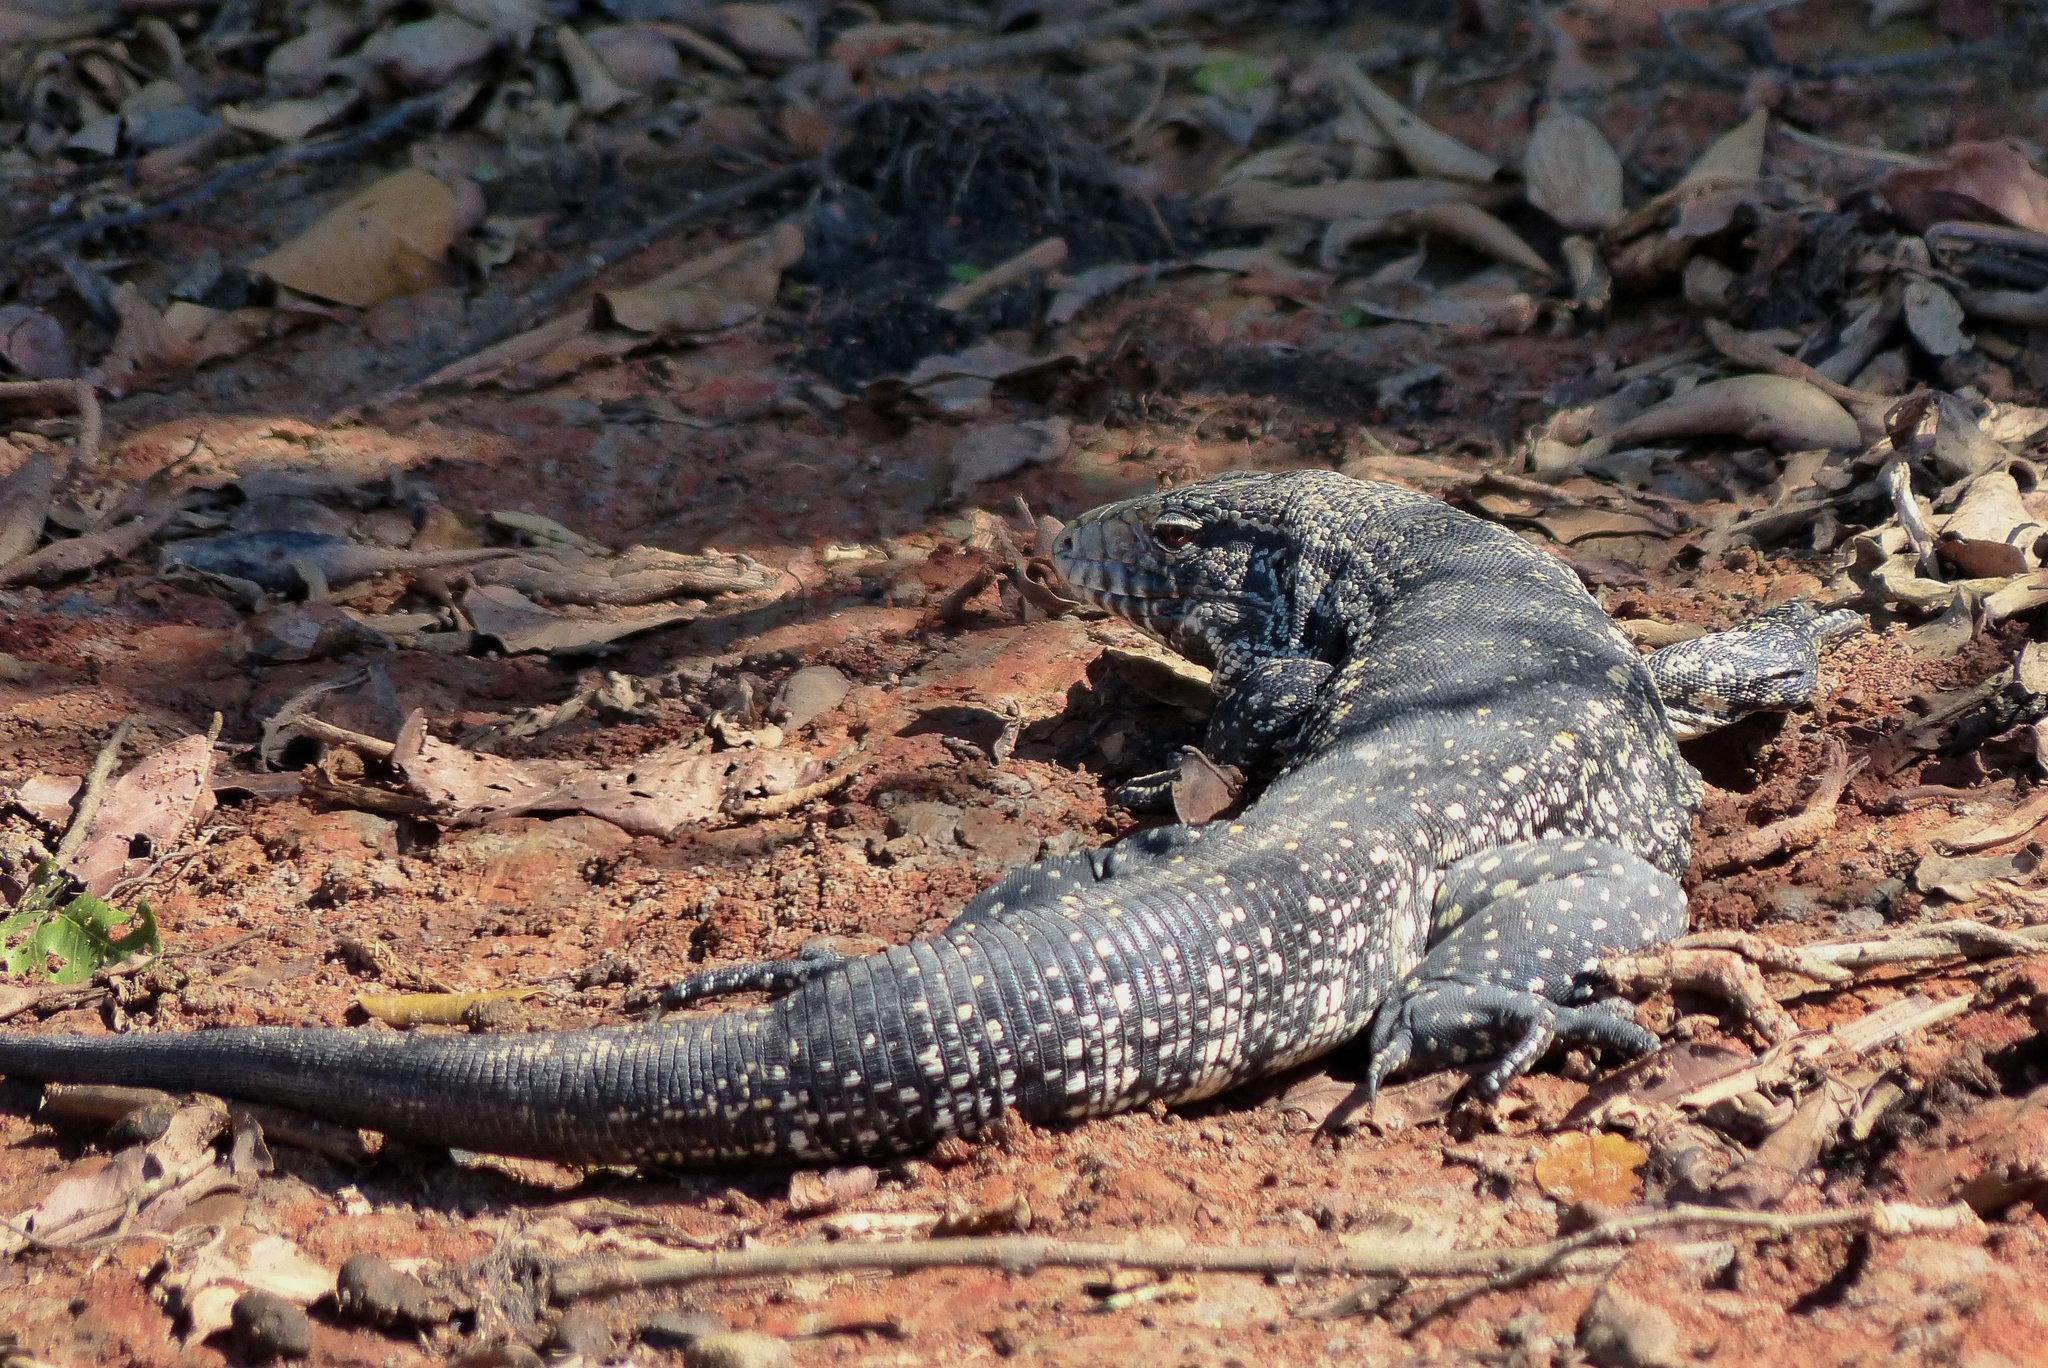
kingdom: Animalia
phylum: Chordata
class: Squamata
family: Teiidae
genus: Salvator
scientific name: Salvator merianae
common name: Argentine black and white tegu
